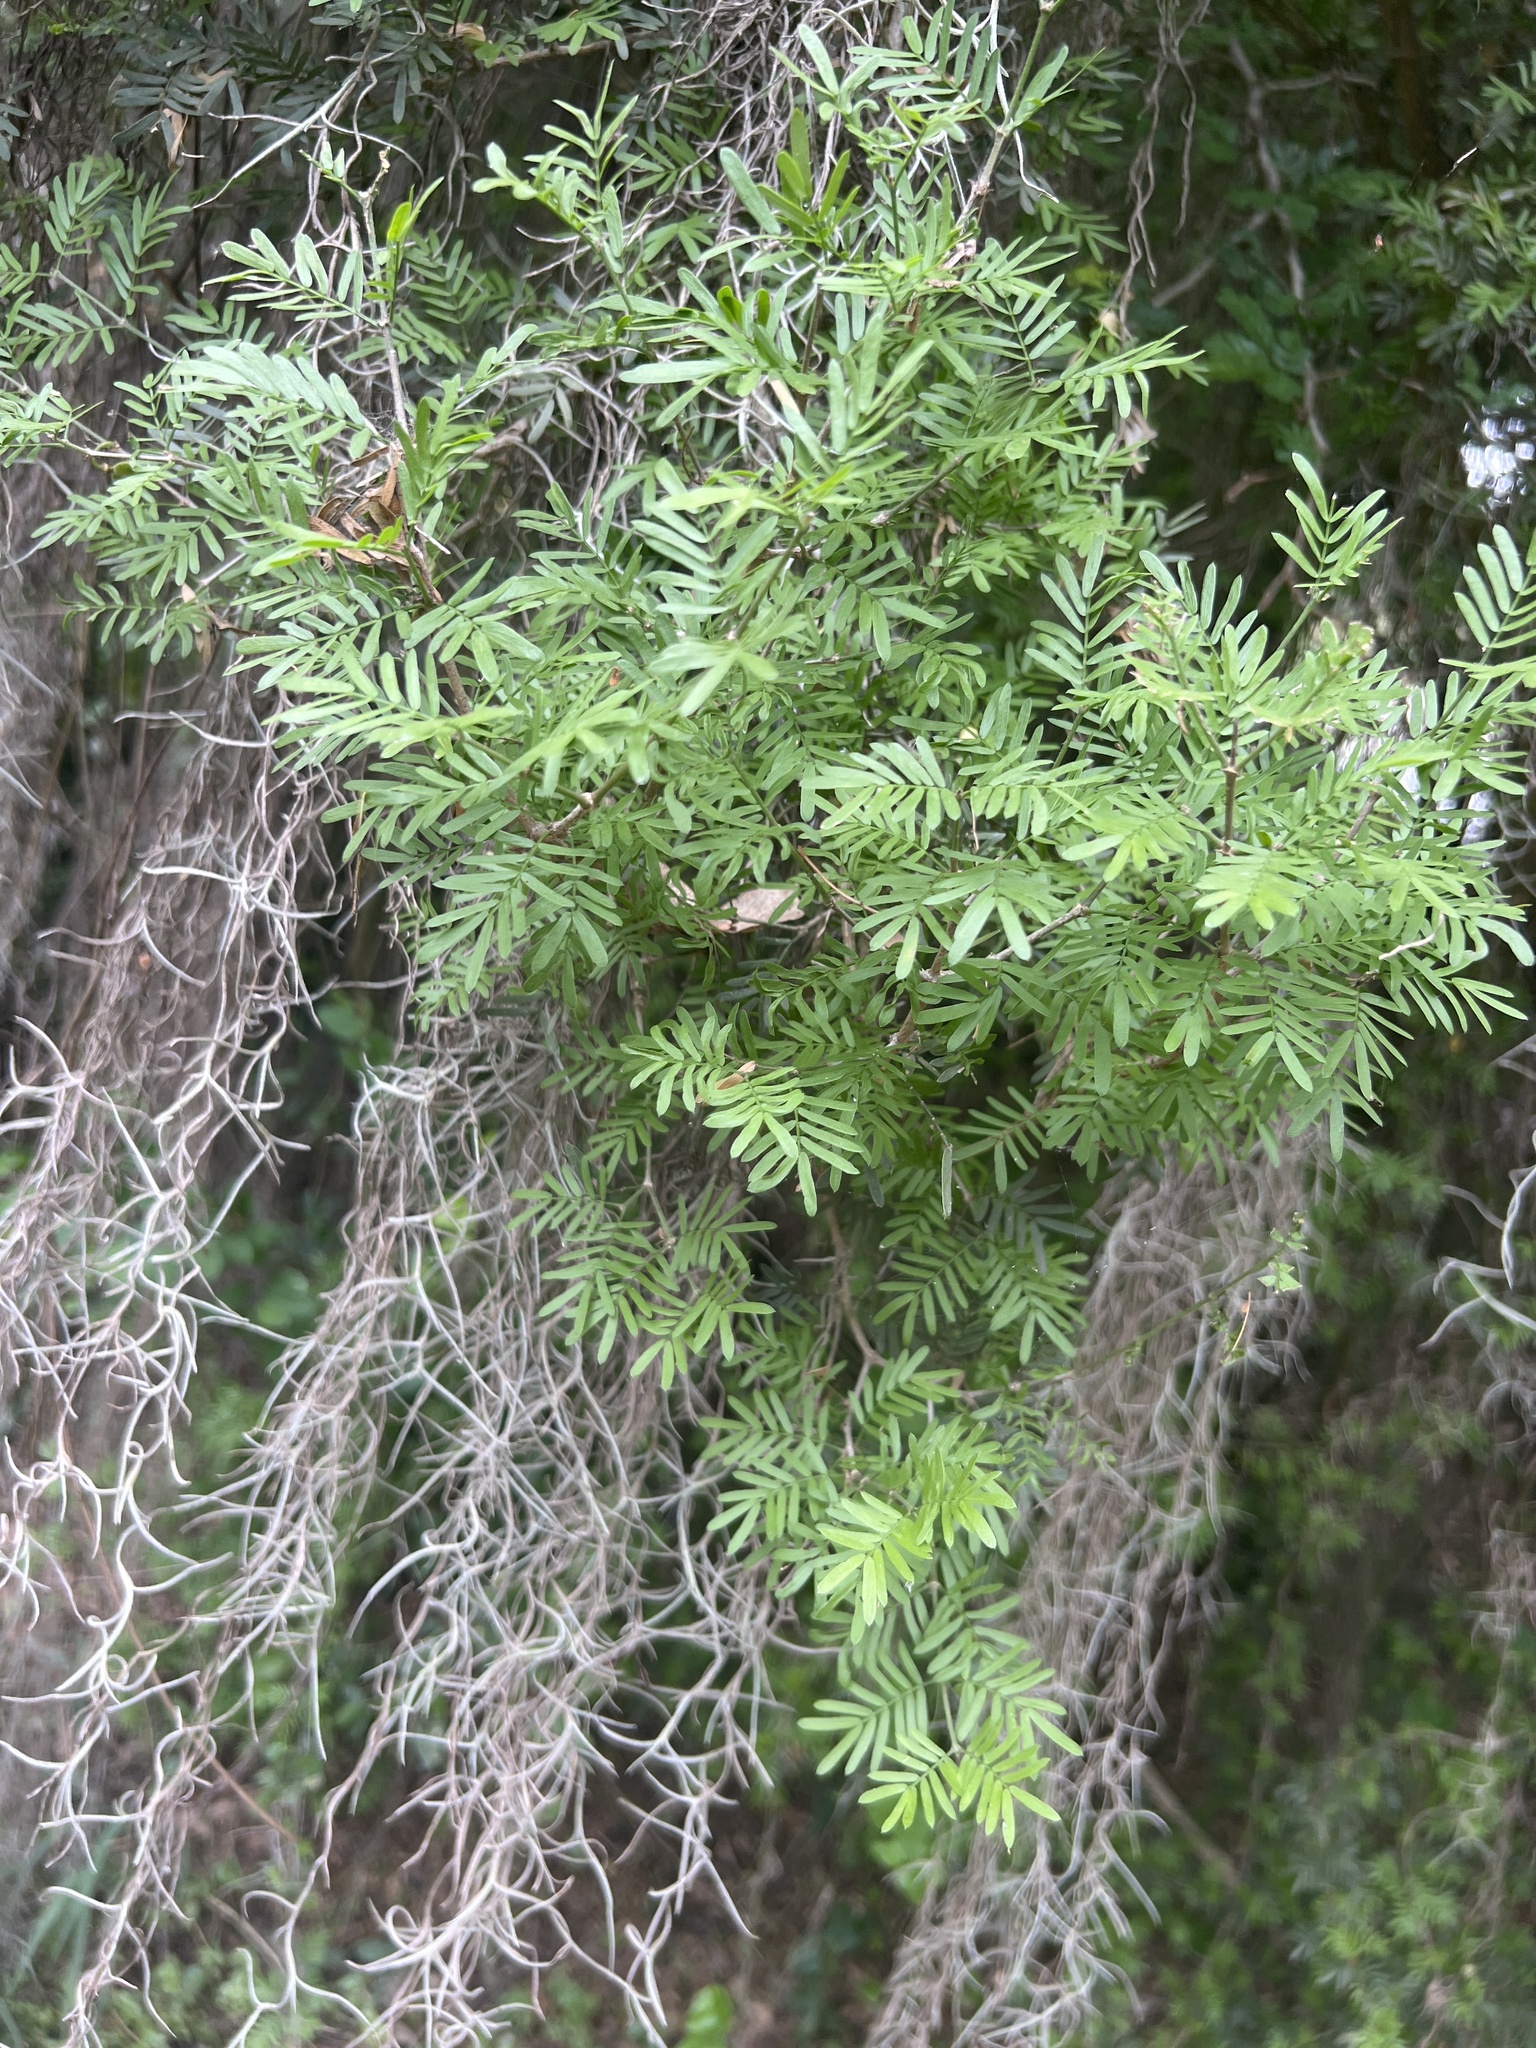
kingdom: Plantae
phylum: Tracheophyta
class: Magnoliopsida
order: Zygophyllales
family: Zygophyllaceae
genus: Porlieria
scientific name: Porlieria angustifolia
